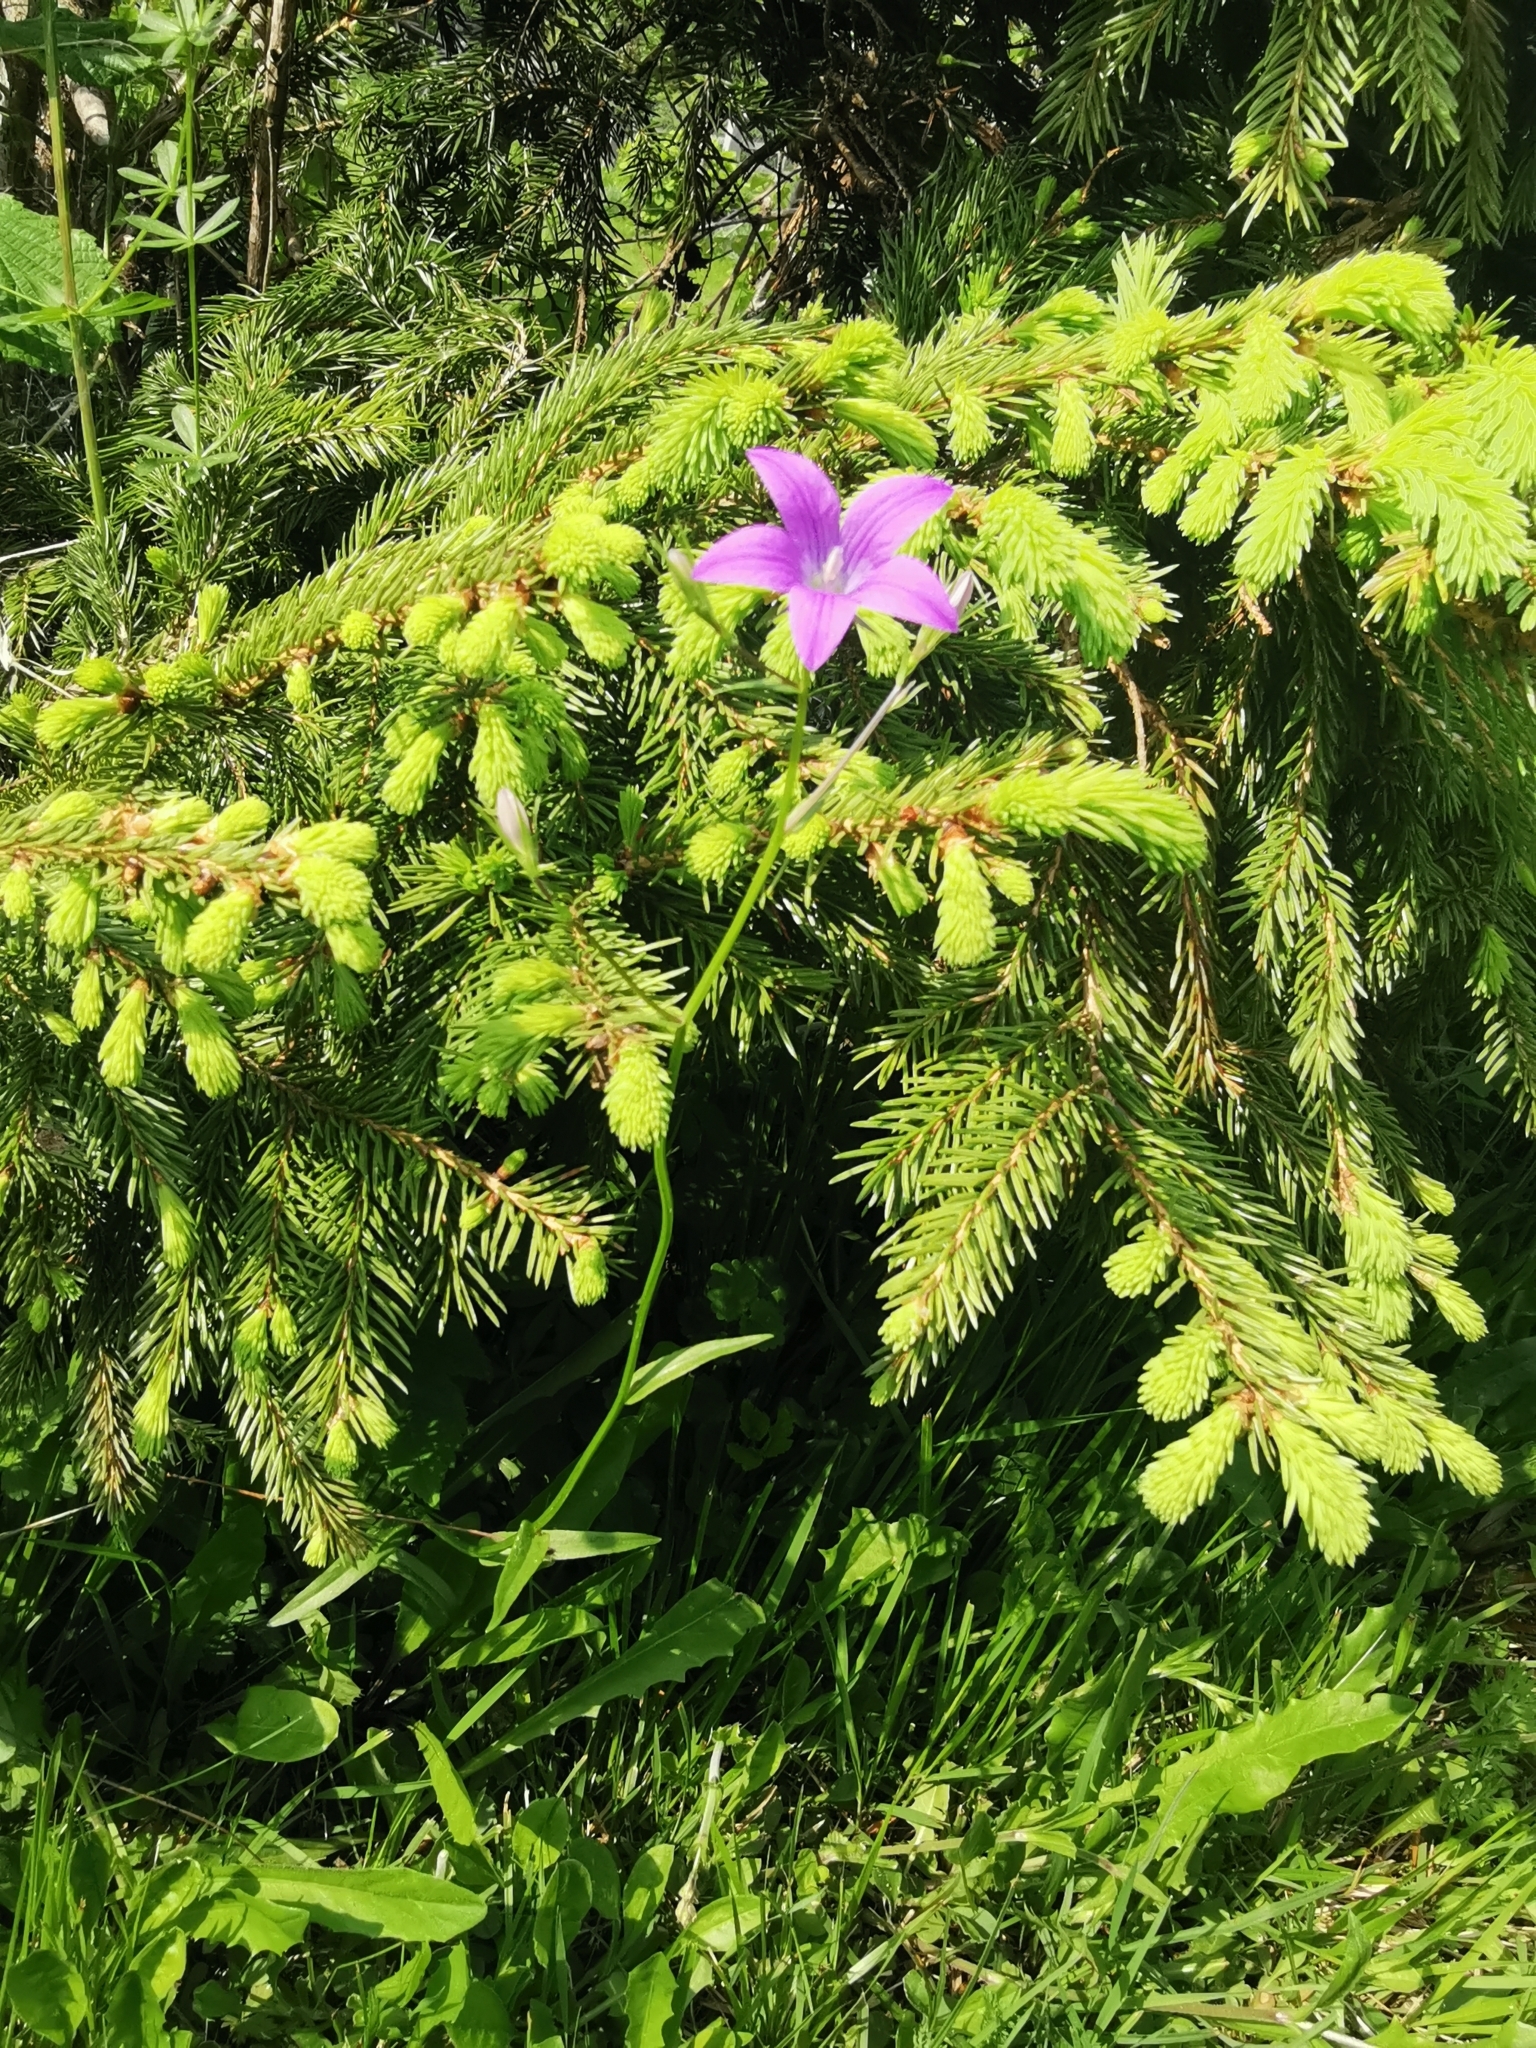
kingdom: Plantae
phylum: Tracheophyta
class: Magnoliopsida
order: Asterales
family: Campanulaceae
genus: Campanula
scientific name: Campanula patula
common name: Spreading bellflower
